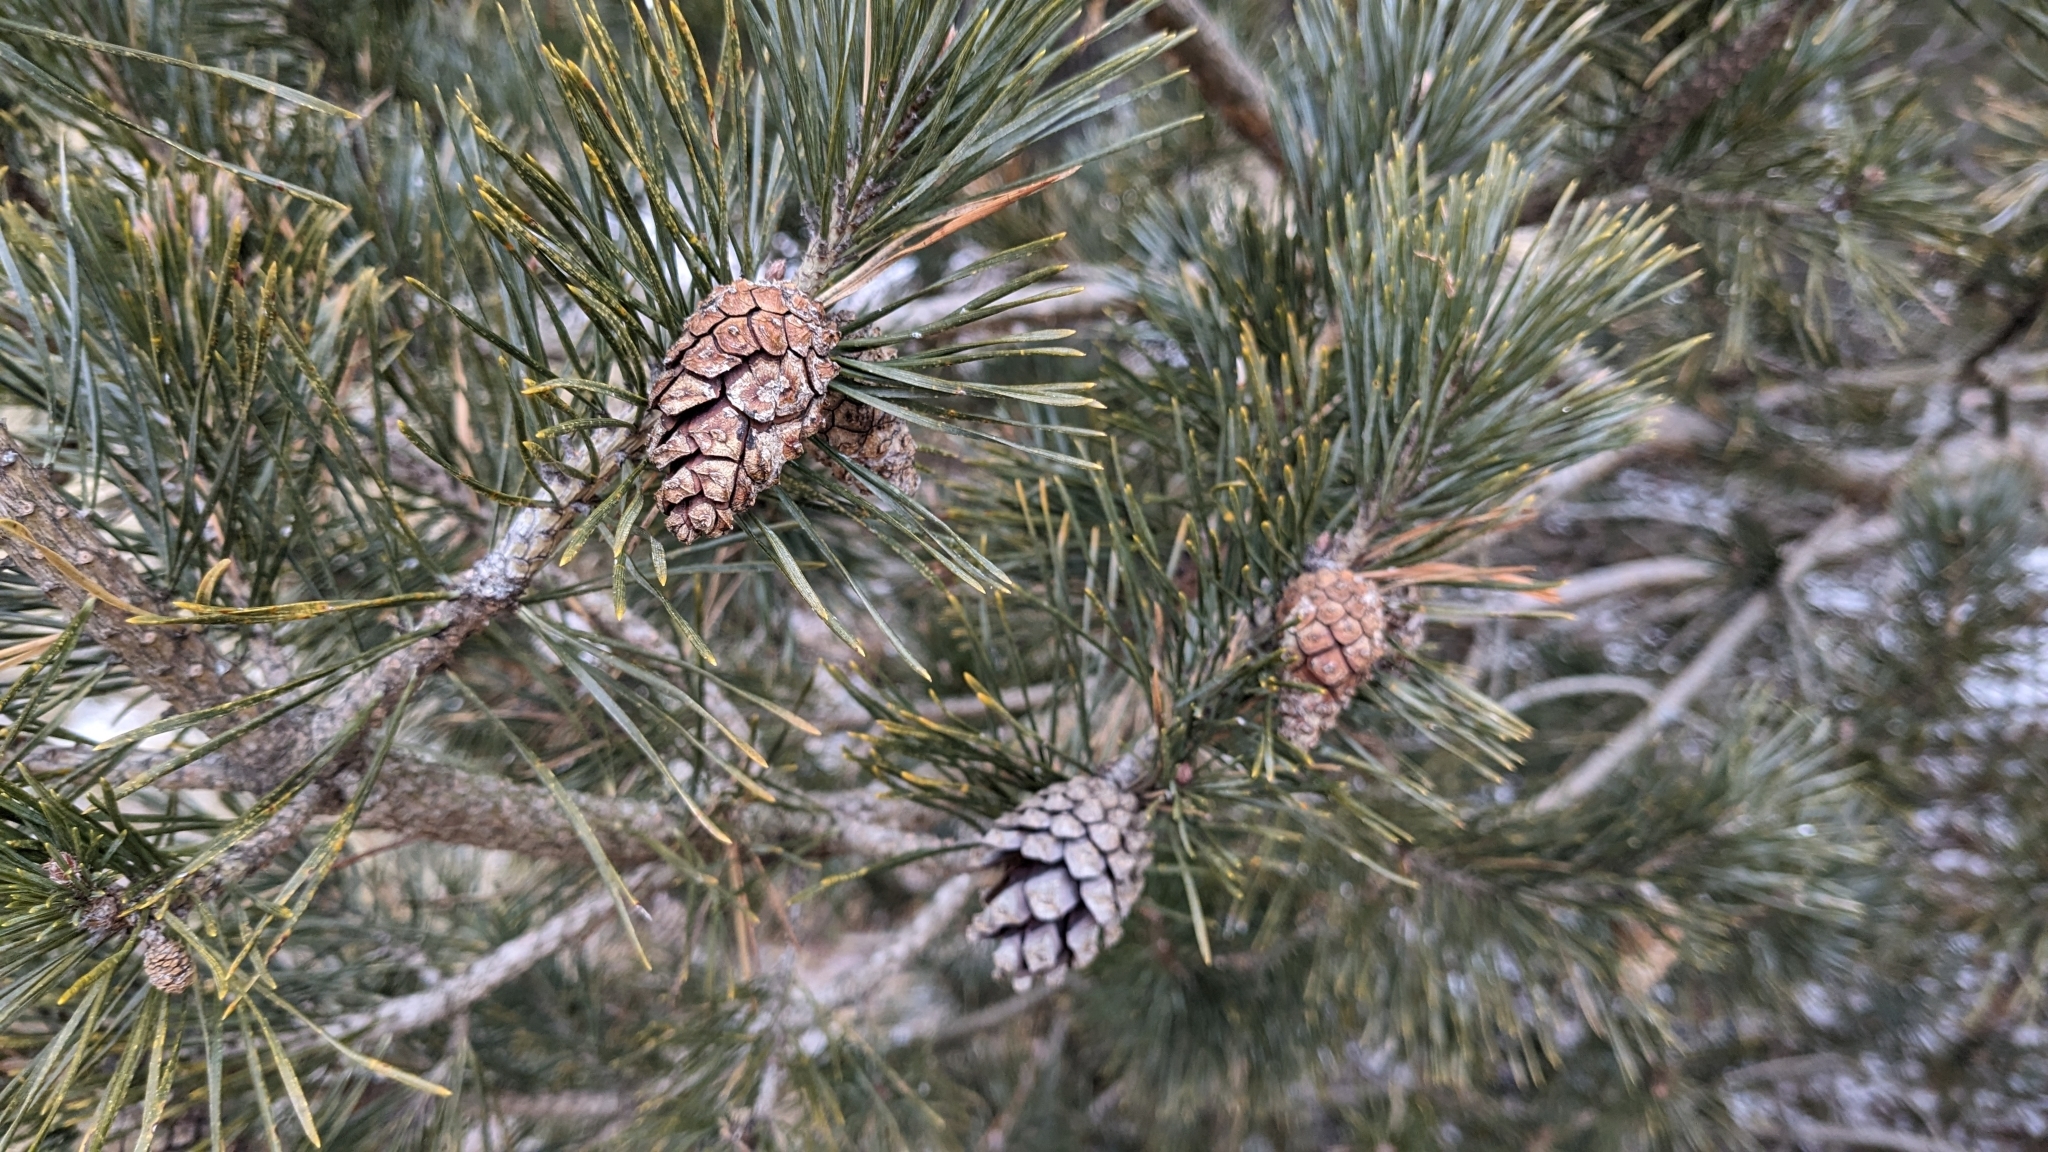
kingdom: Plantae
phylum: Tracheophyta
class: Pinopsida
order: Pinales
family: Pinaceae
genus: Pinus
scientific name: Pinus sylvestris
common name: Scots pine
